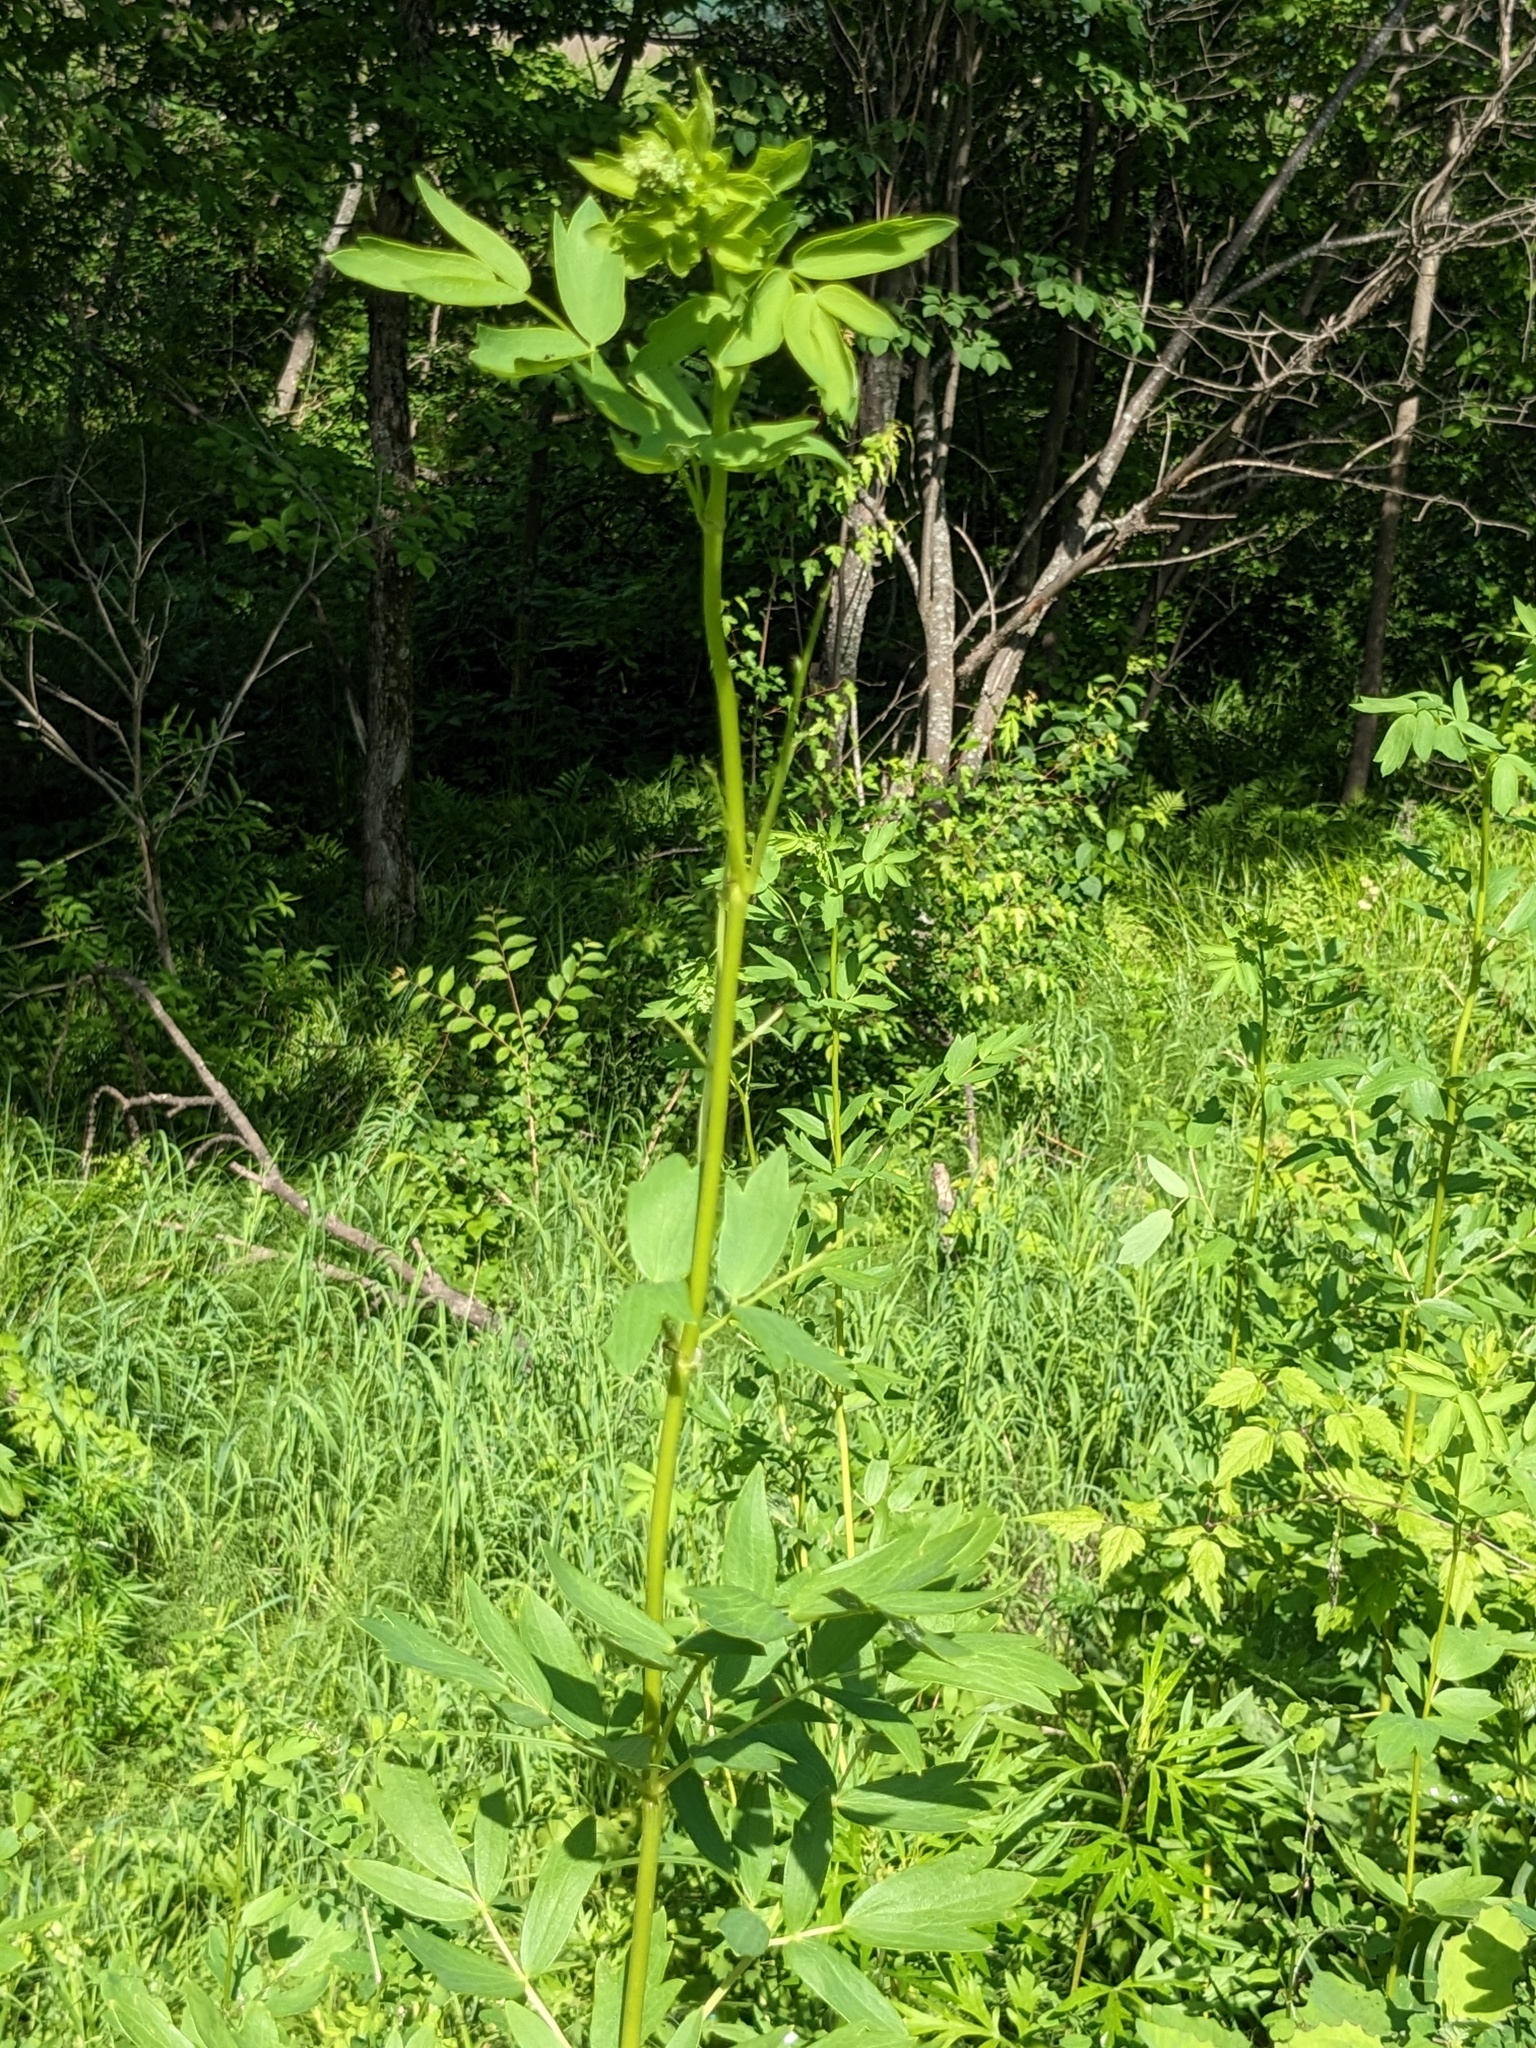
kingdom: Plantae
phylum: Tracheophyta
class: Magnoliopsida
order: Ranunculales
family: Ranunculaceae
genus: Thalictrum
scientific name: Thalictrum simplex
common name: Small meadow-rue
